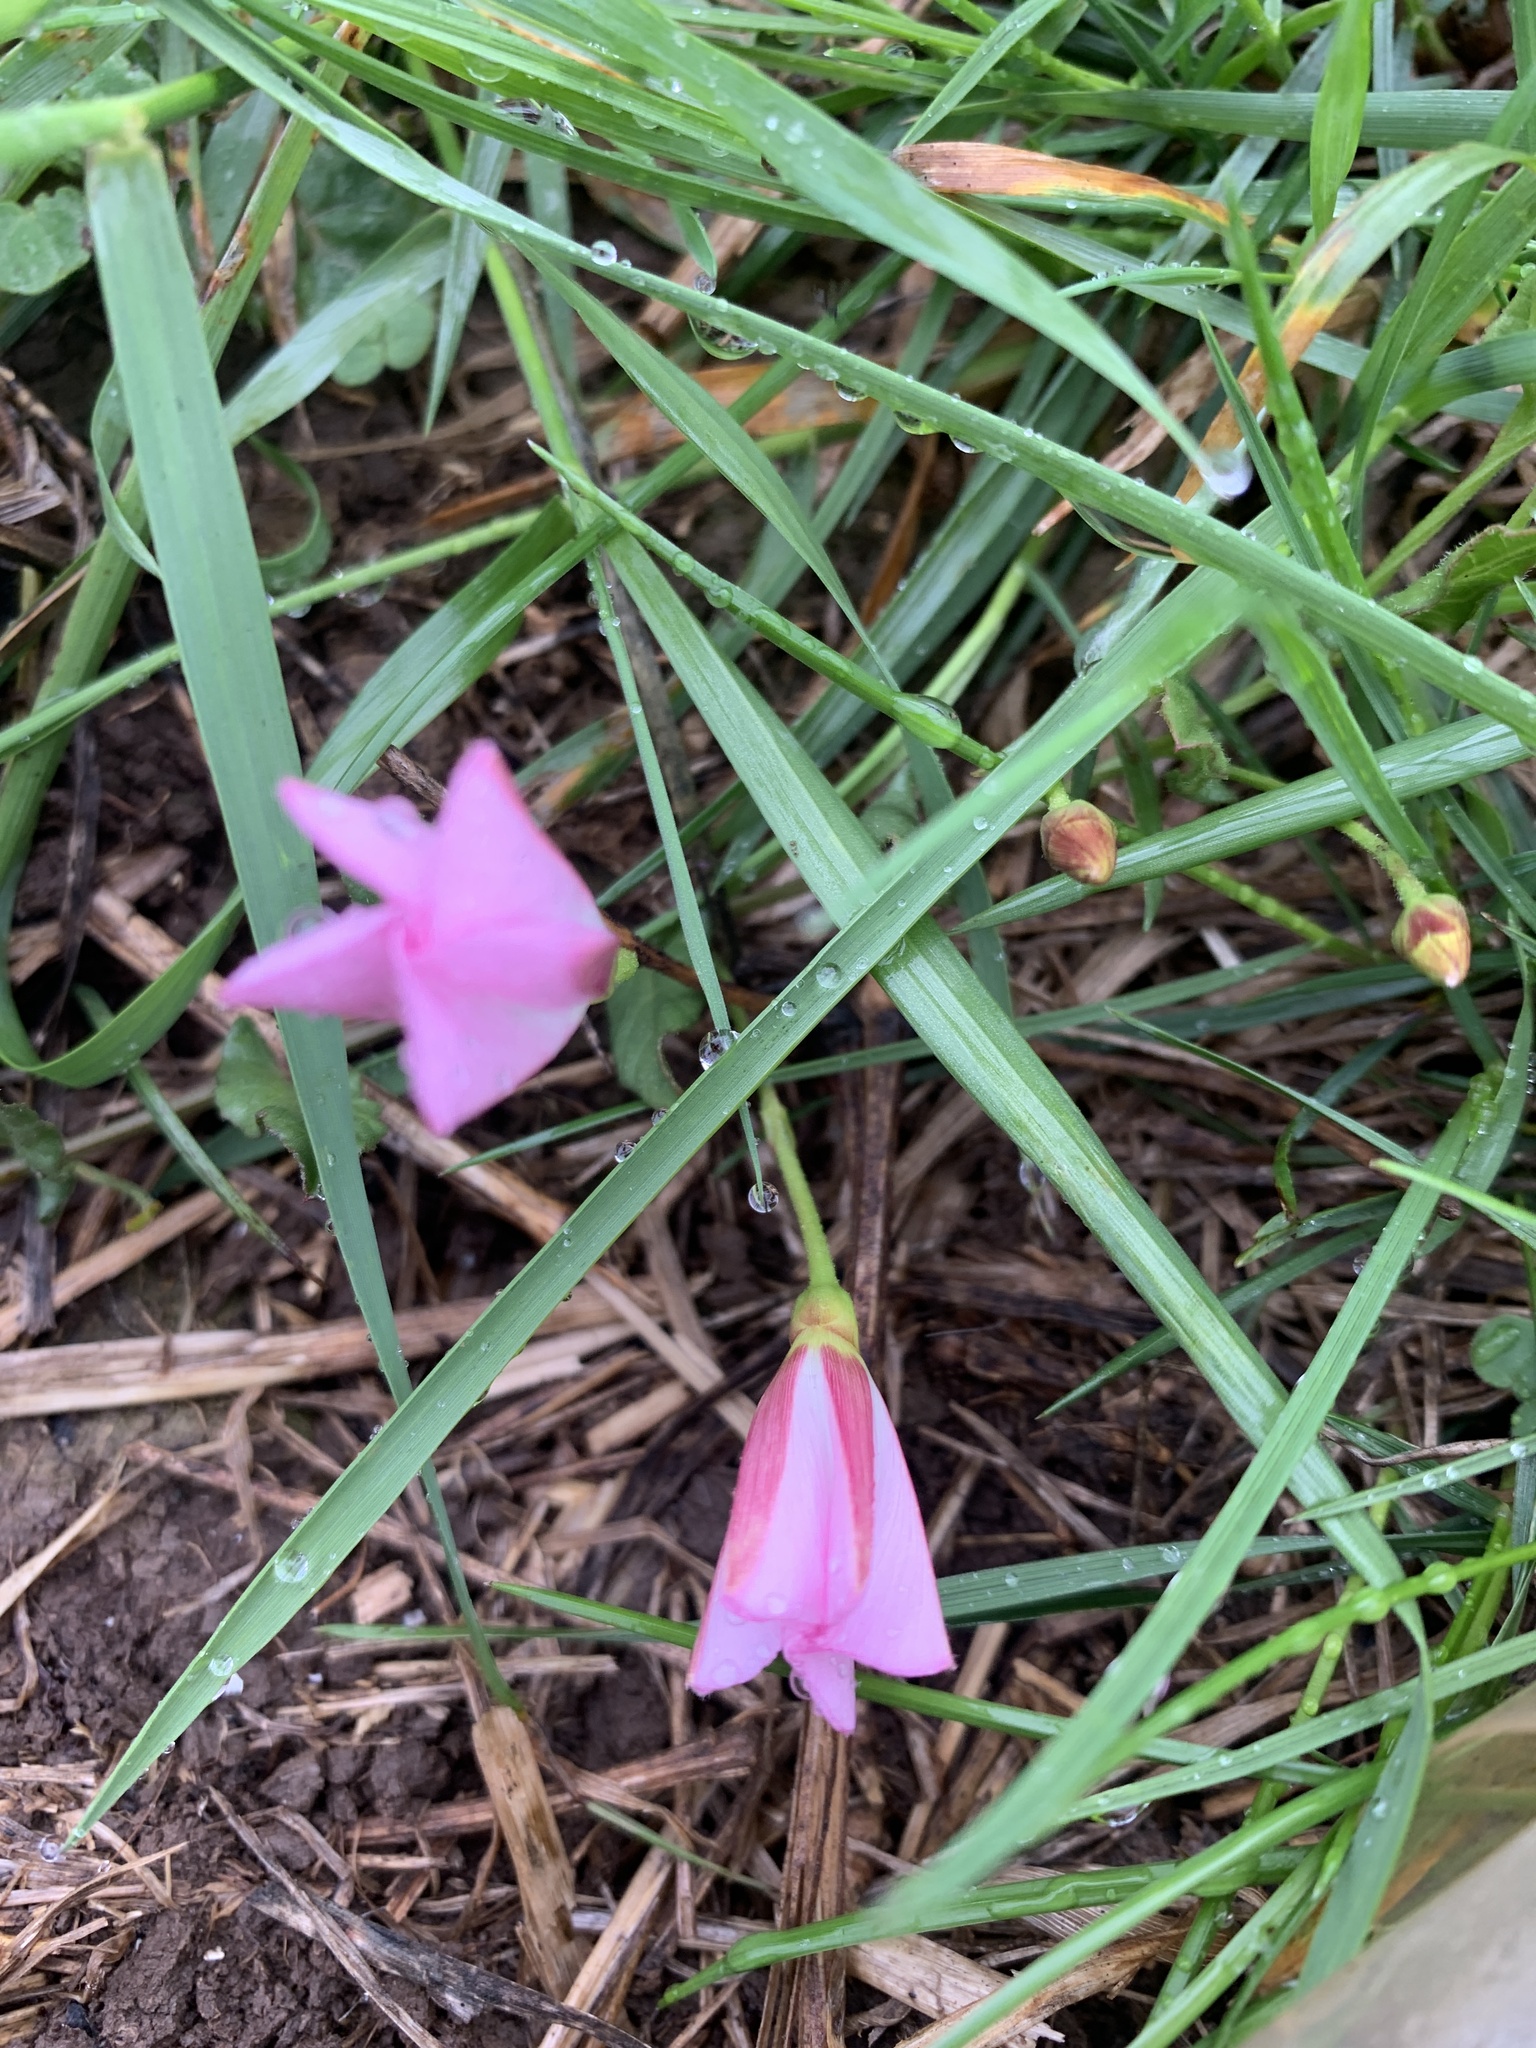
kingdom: Plantae
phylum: Tracheophyta
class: Magnoliopsida
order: Solanales
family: Convolvulaceae
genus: Convolvulus
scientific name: Convolvulus arvensis
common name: Field bindweed
